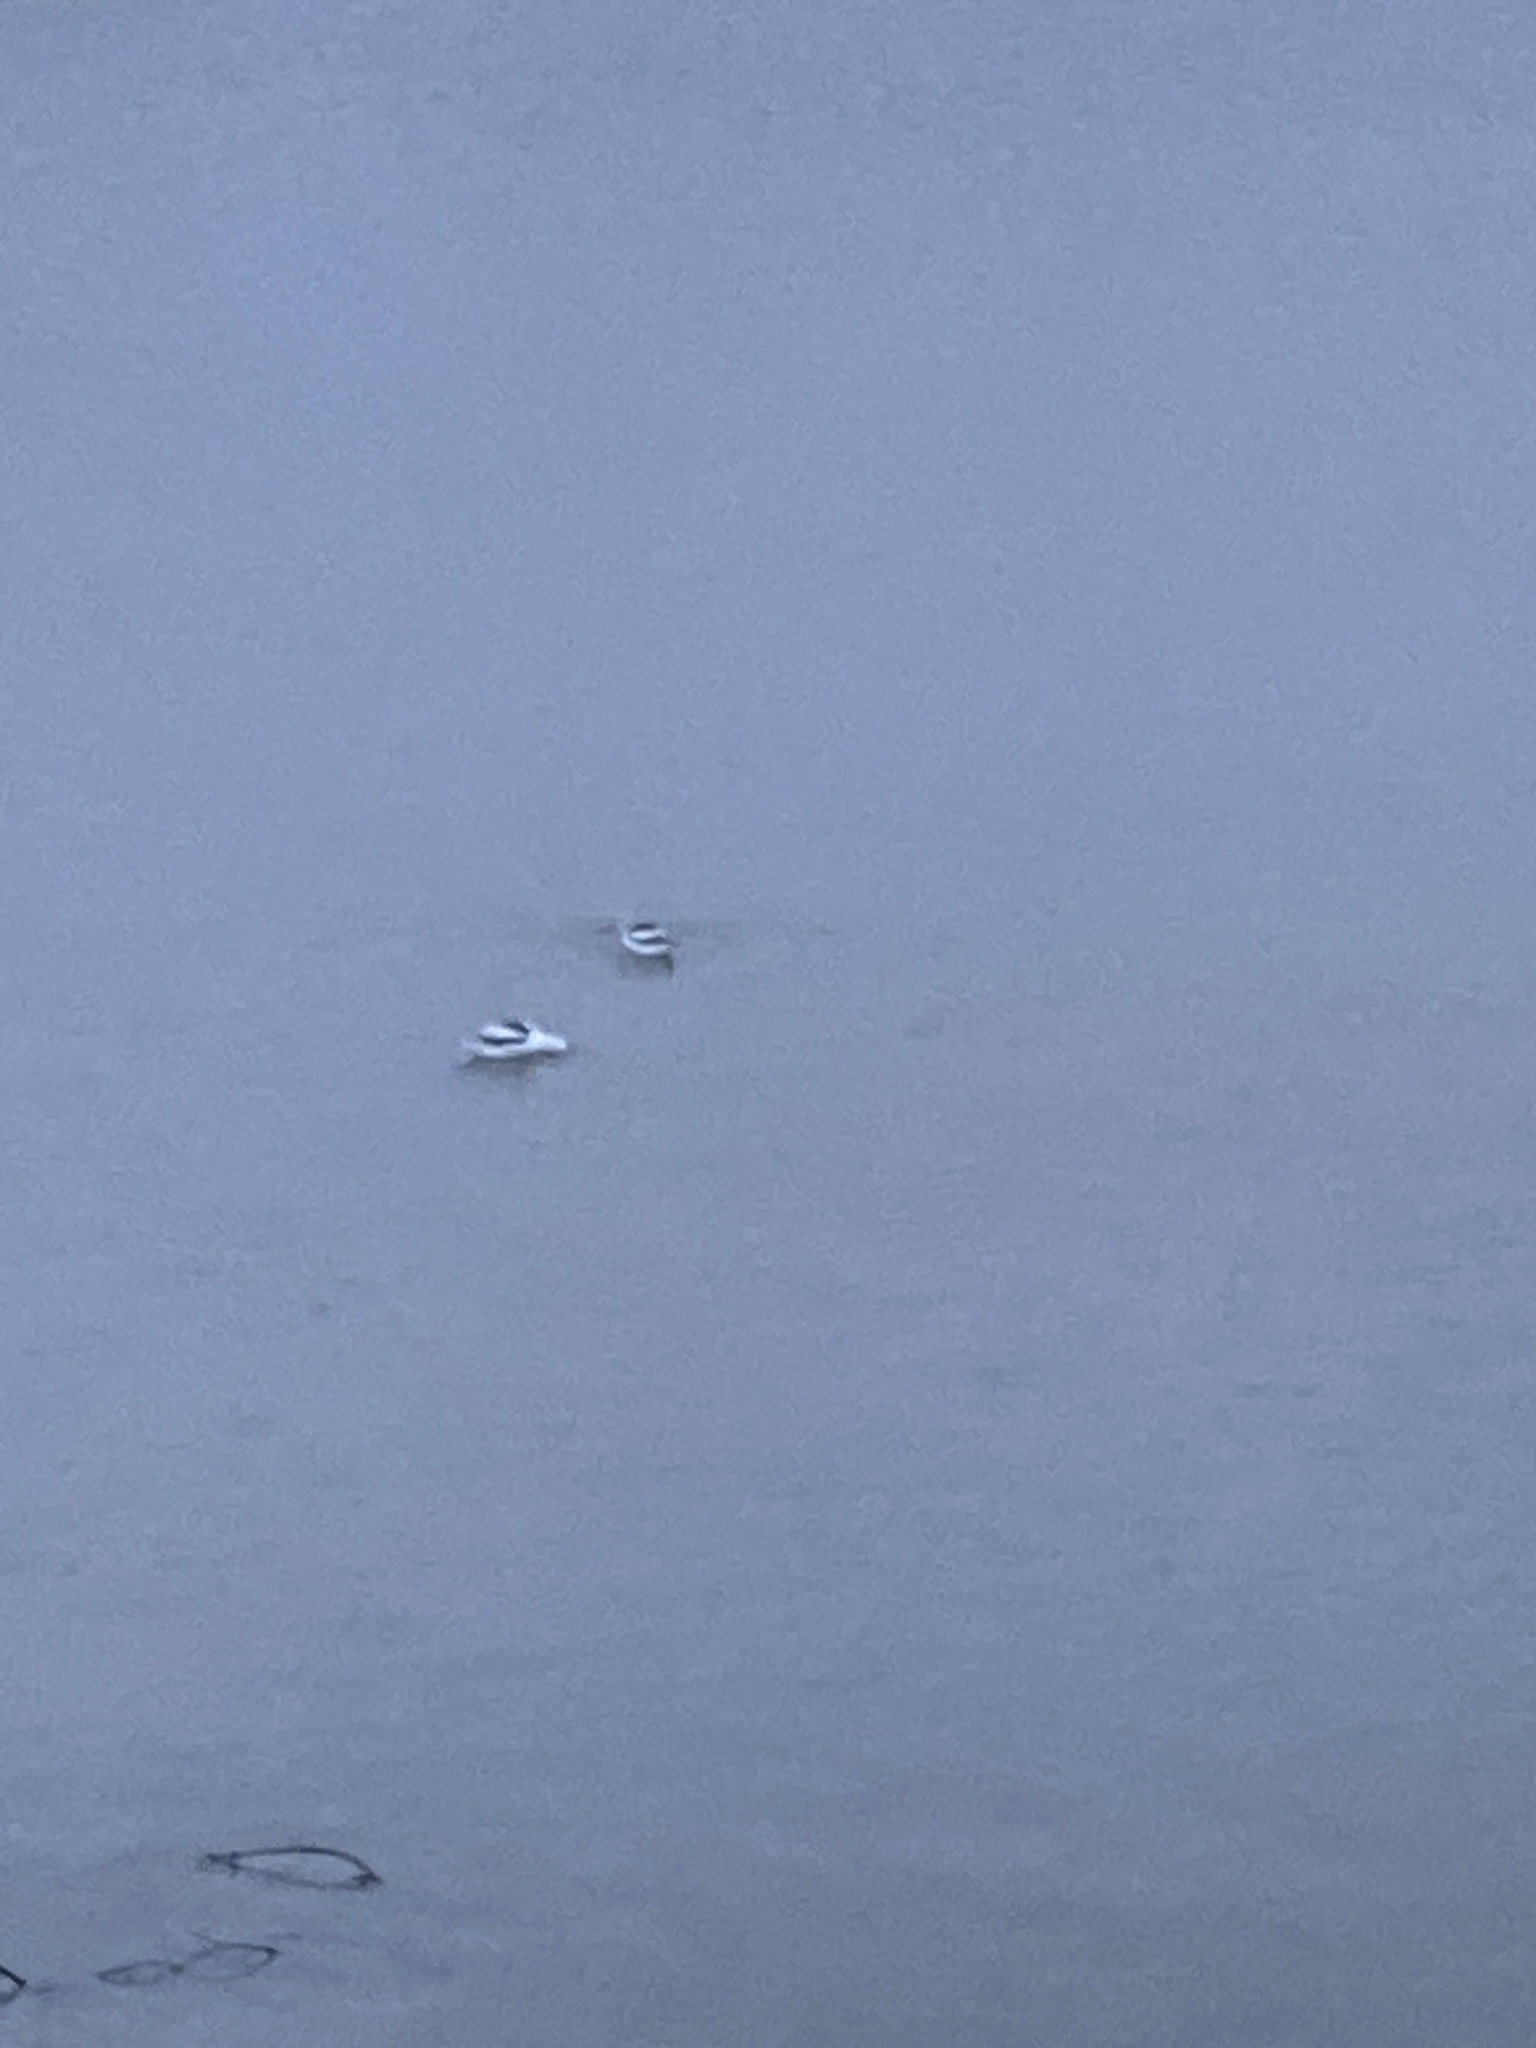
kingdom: Animalia
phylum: Chordata
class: Aves
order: Charadriiformes
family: Recurvirostridae
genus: Recurvirostra
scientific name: Recurvirostra americana
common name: American avocet
